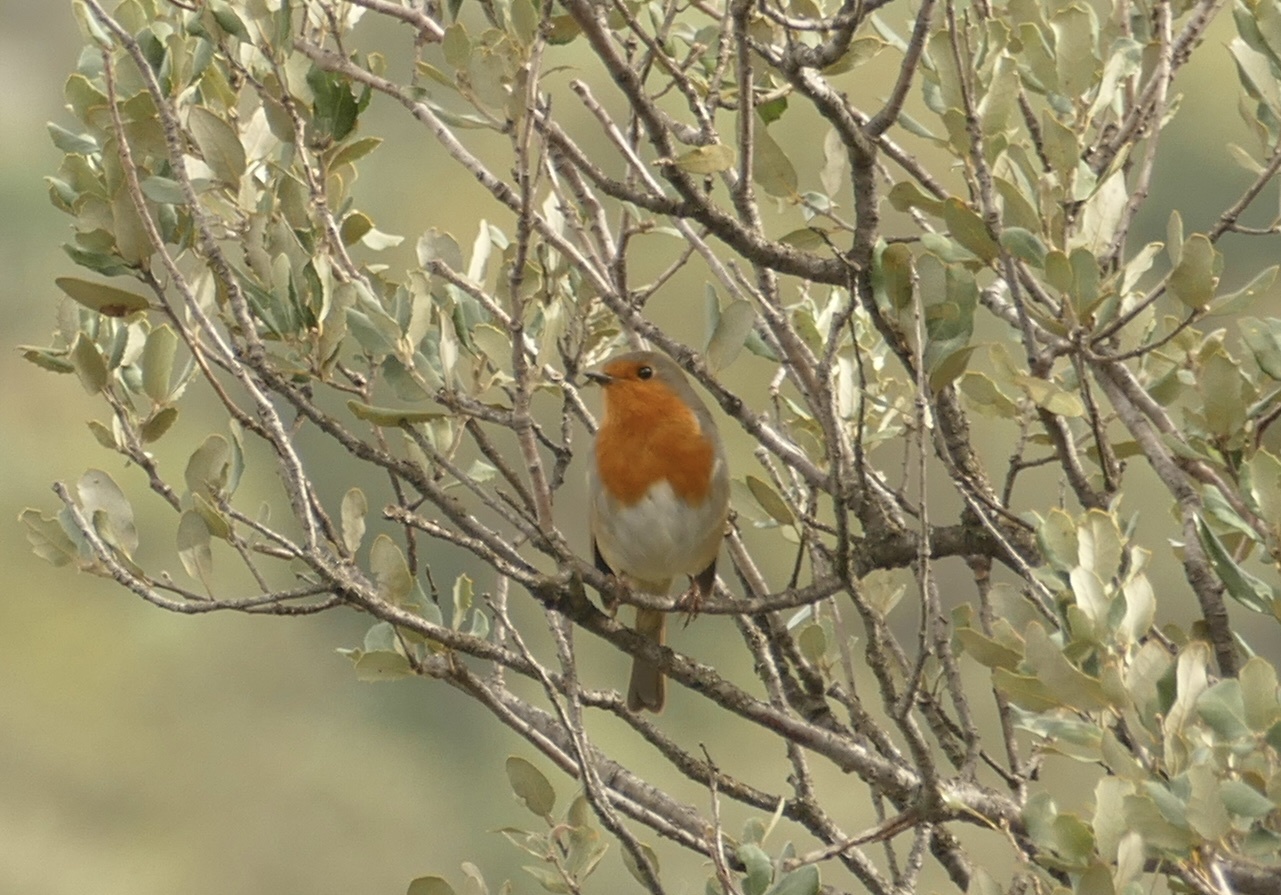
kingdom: Animalia
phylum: Chordata
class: Aves
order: Passeriformes
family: Muscicapidae
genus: Erithacus
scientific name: Erithacus rubecula
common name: European robin
